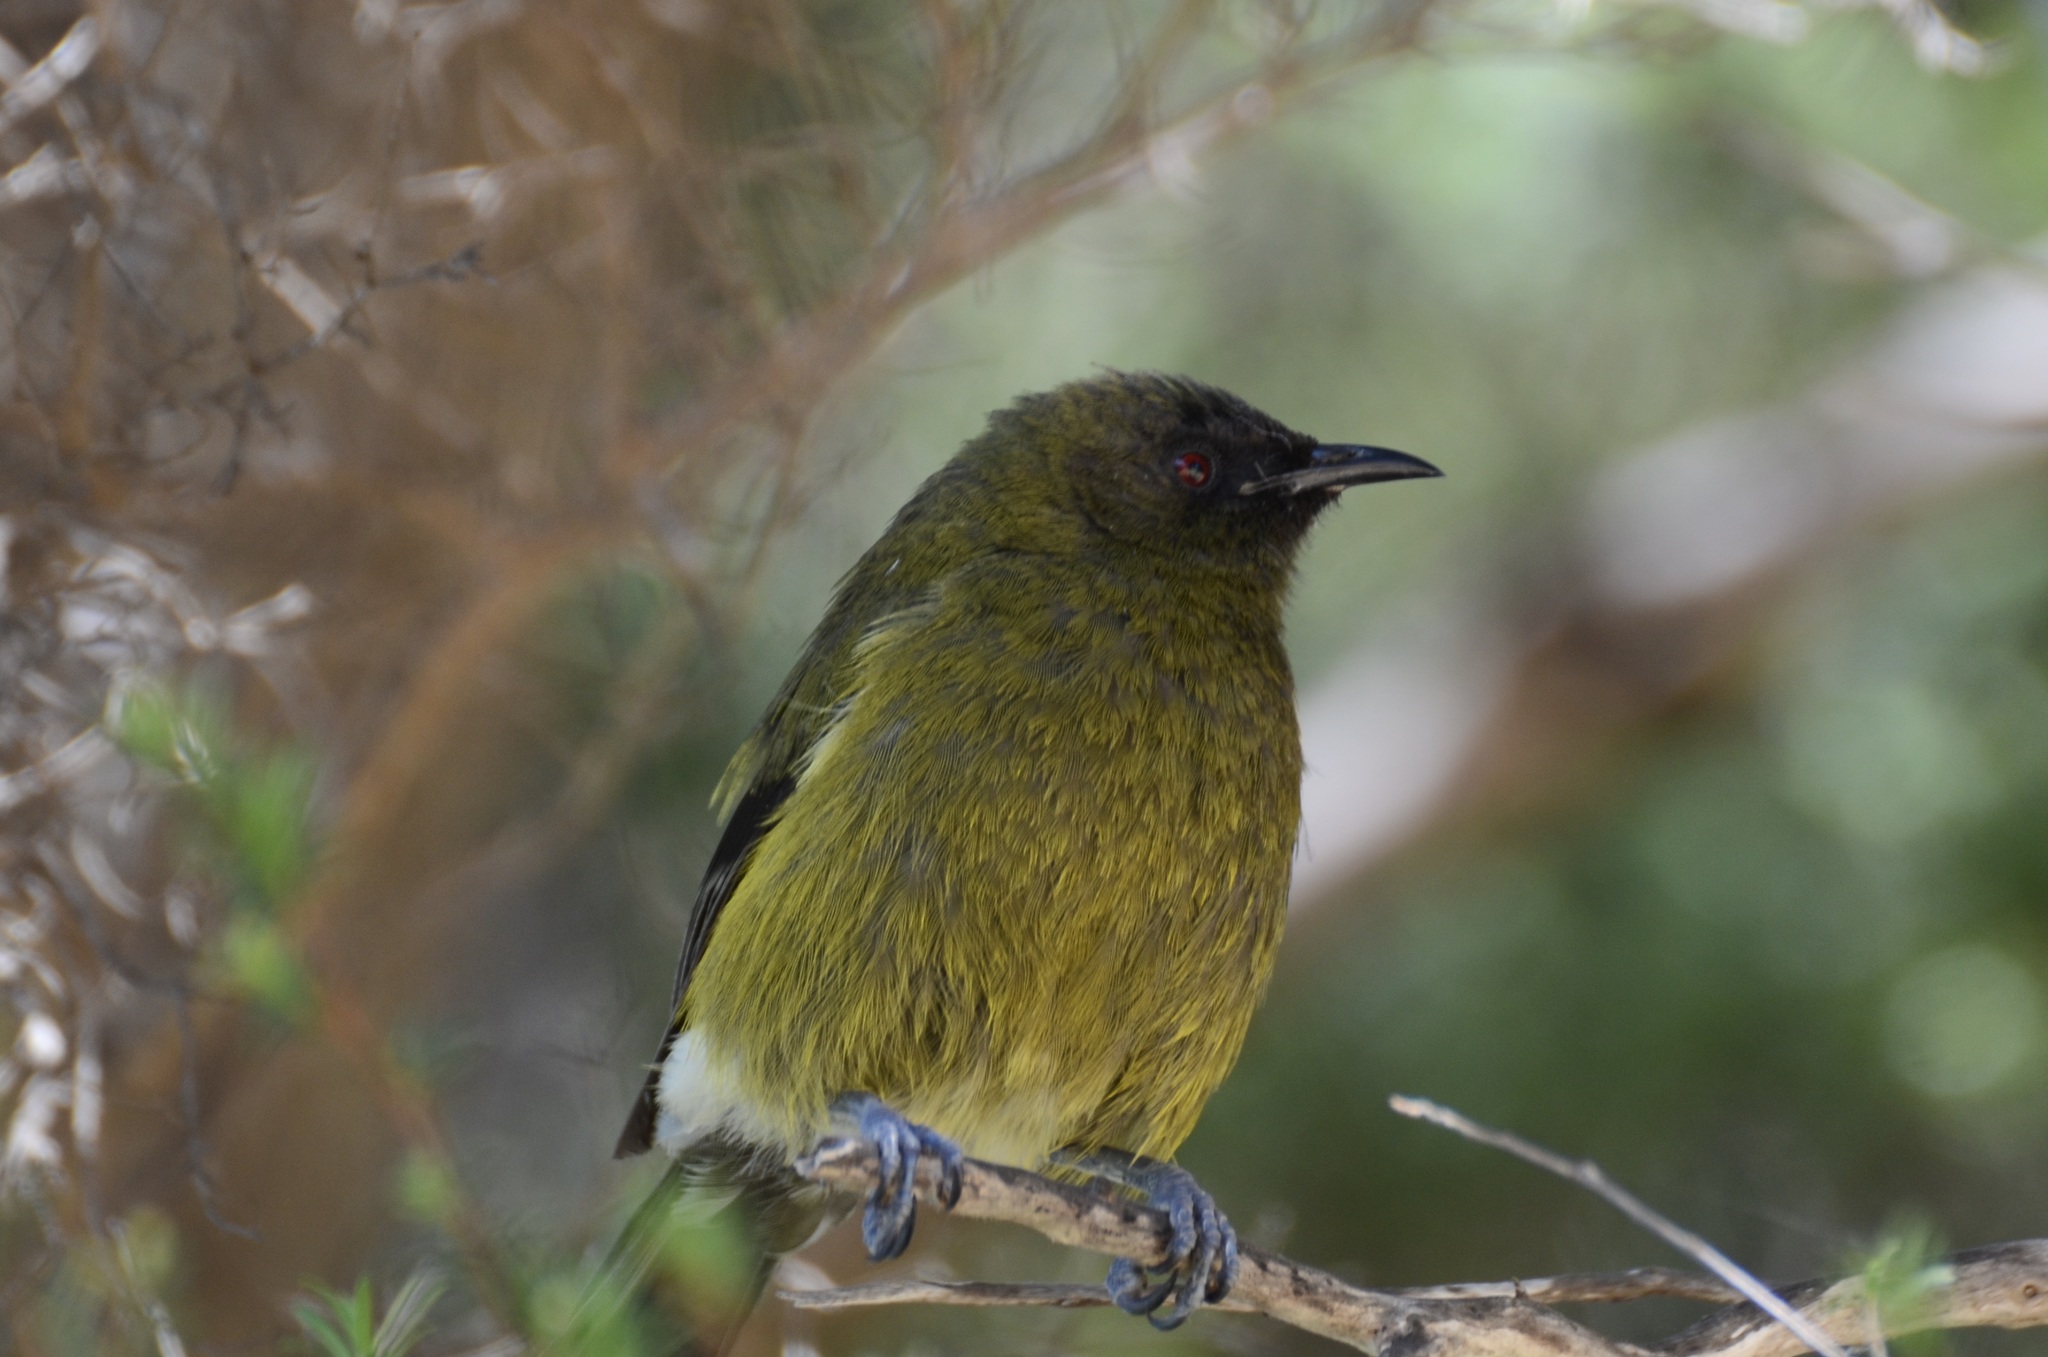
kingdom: Animalia
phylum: Chordata
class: Aves
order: Passeriformes
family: Meliphagidae
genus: Anthornis
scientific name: Anthornis melanura
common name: New zealand bellbird
